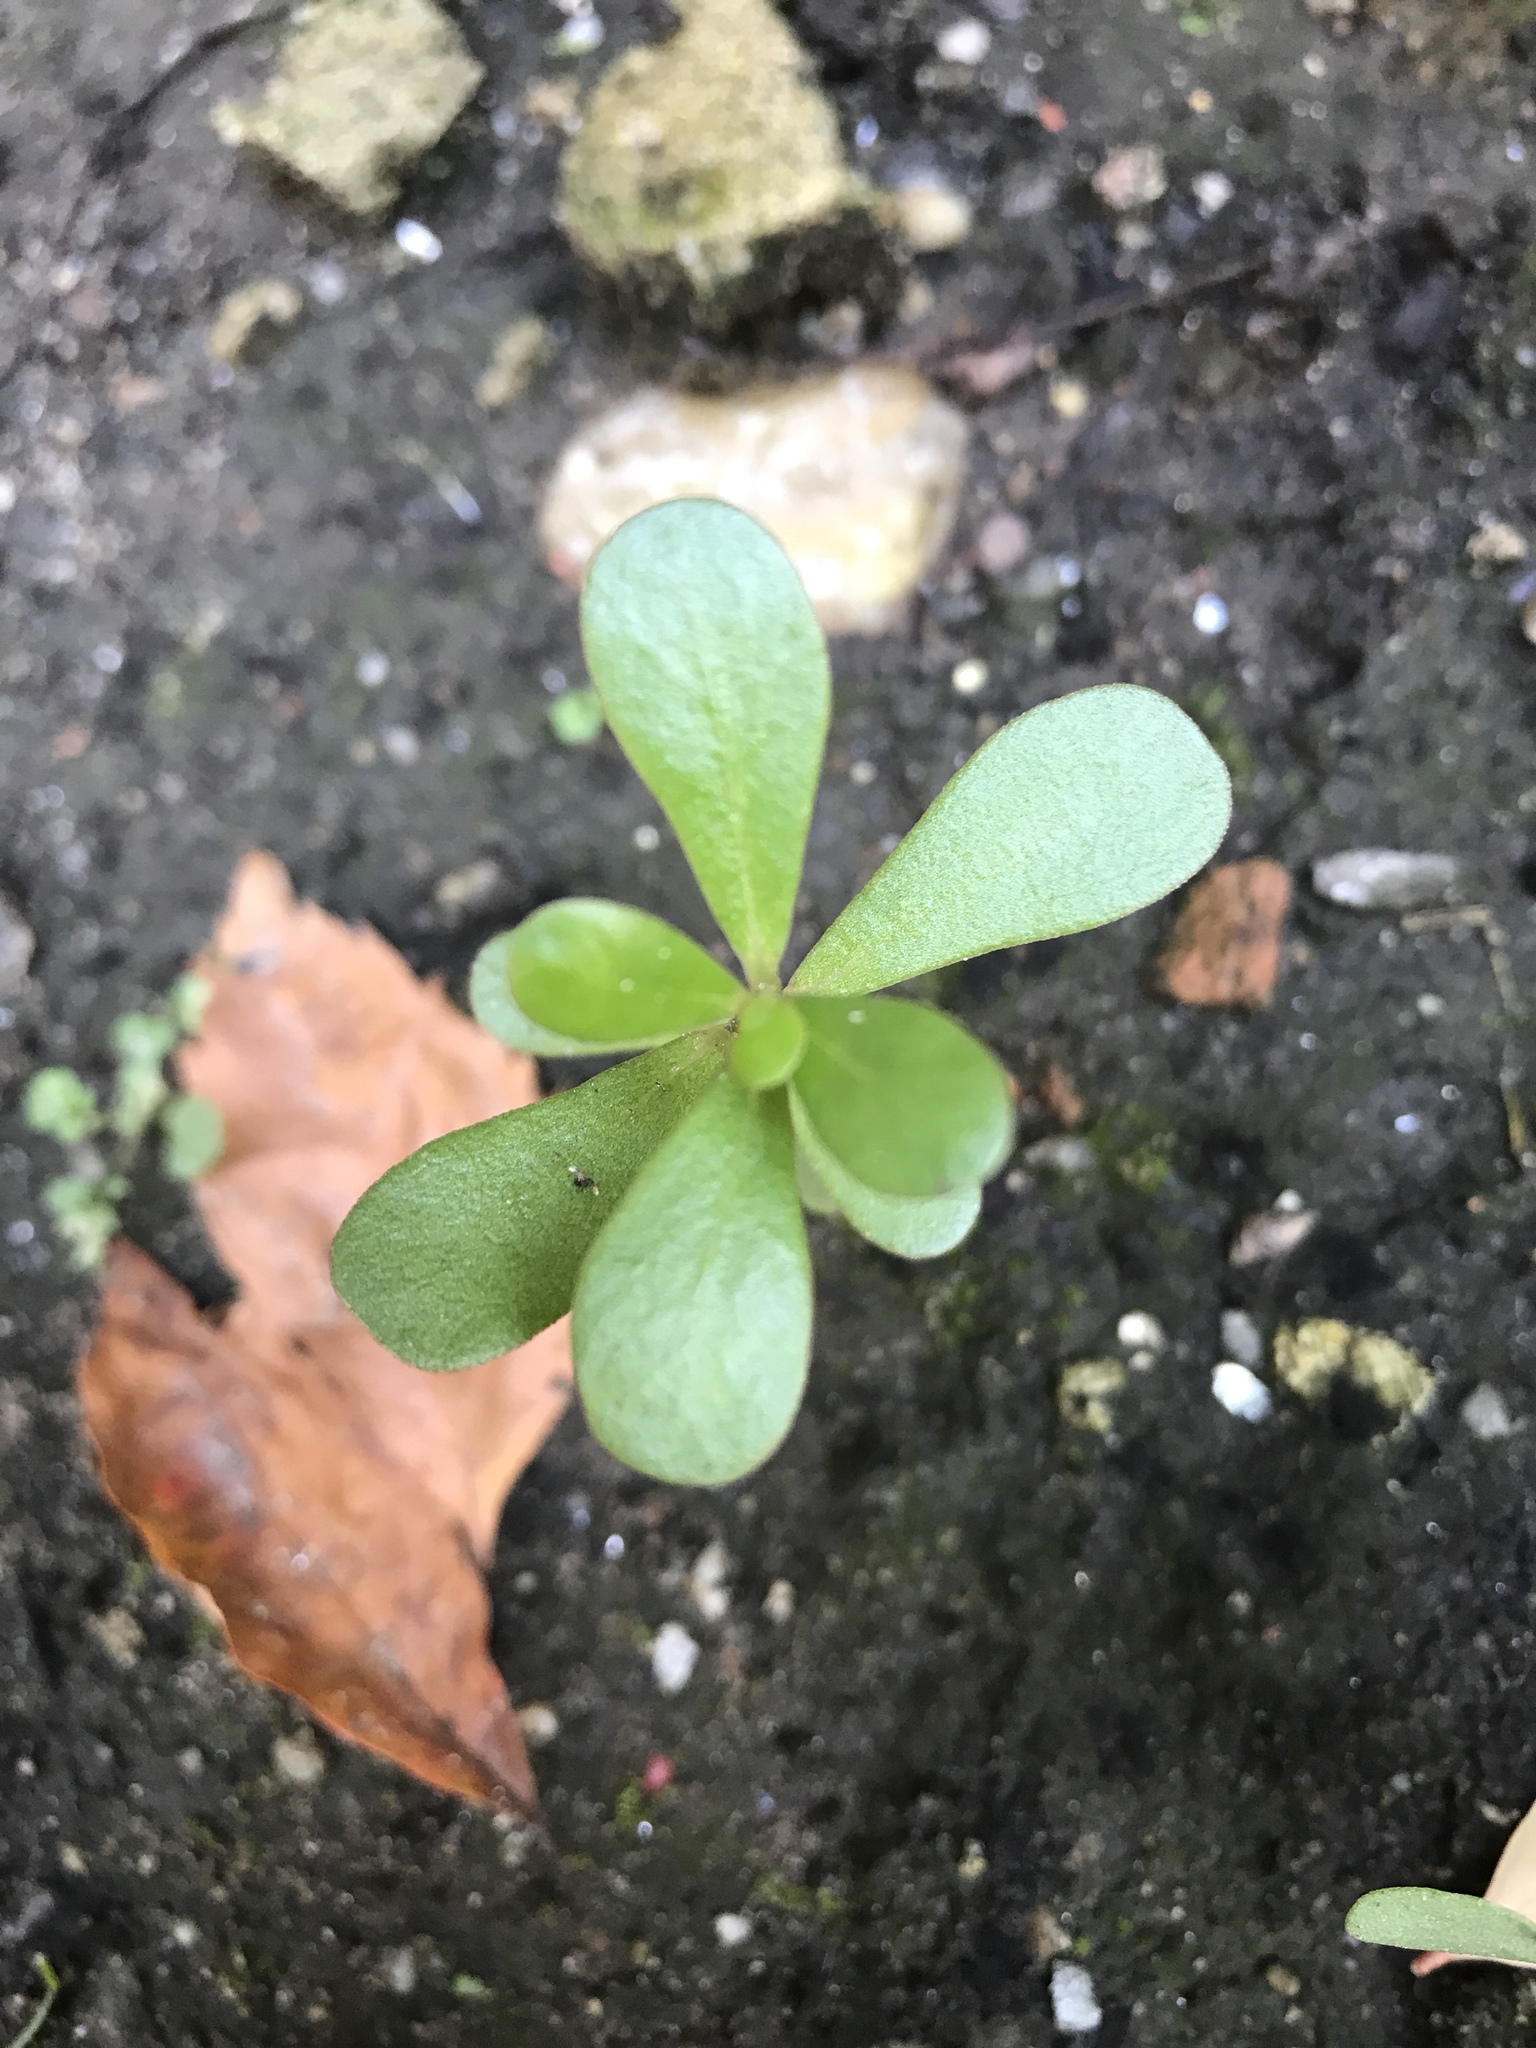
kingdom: Plantae
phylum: Tracheophyta
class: Magnoliopsida
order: Caryophyllales
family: Portulacaceae
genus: Portulaca
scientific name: Portulaca oleracea
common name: Common purslane
